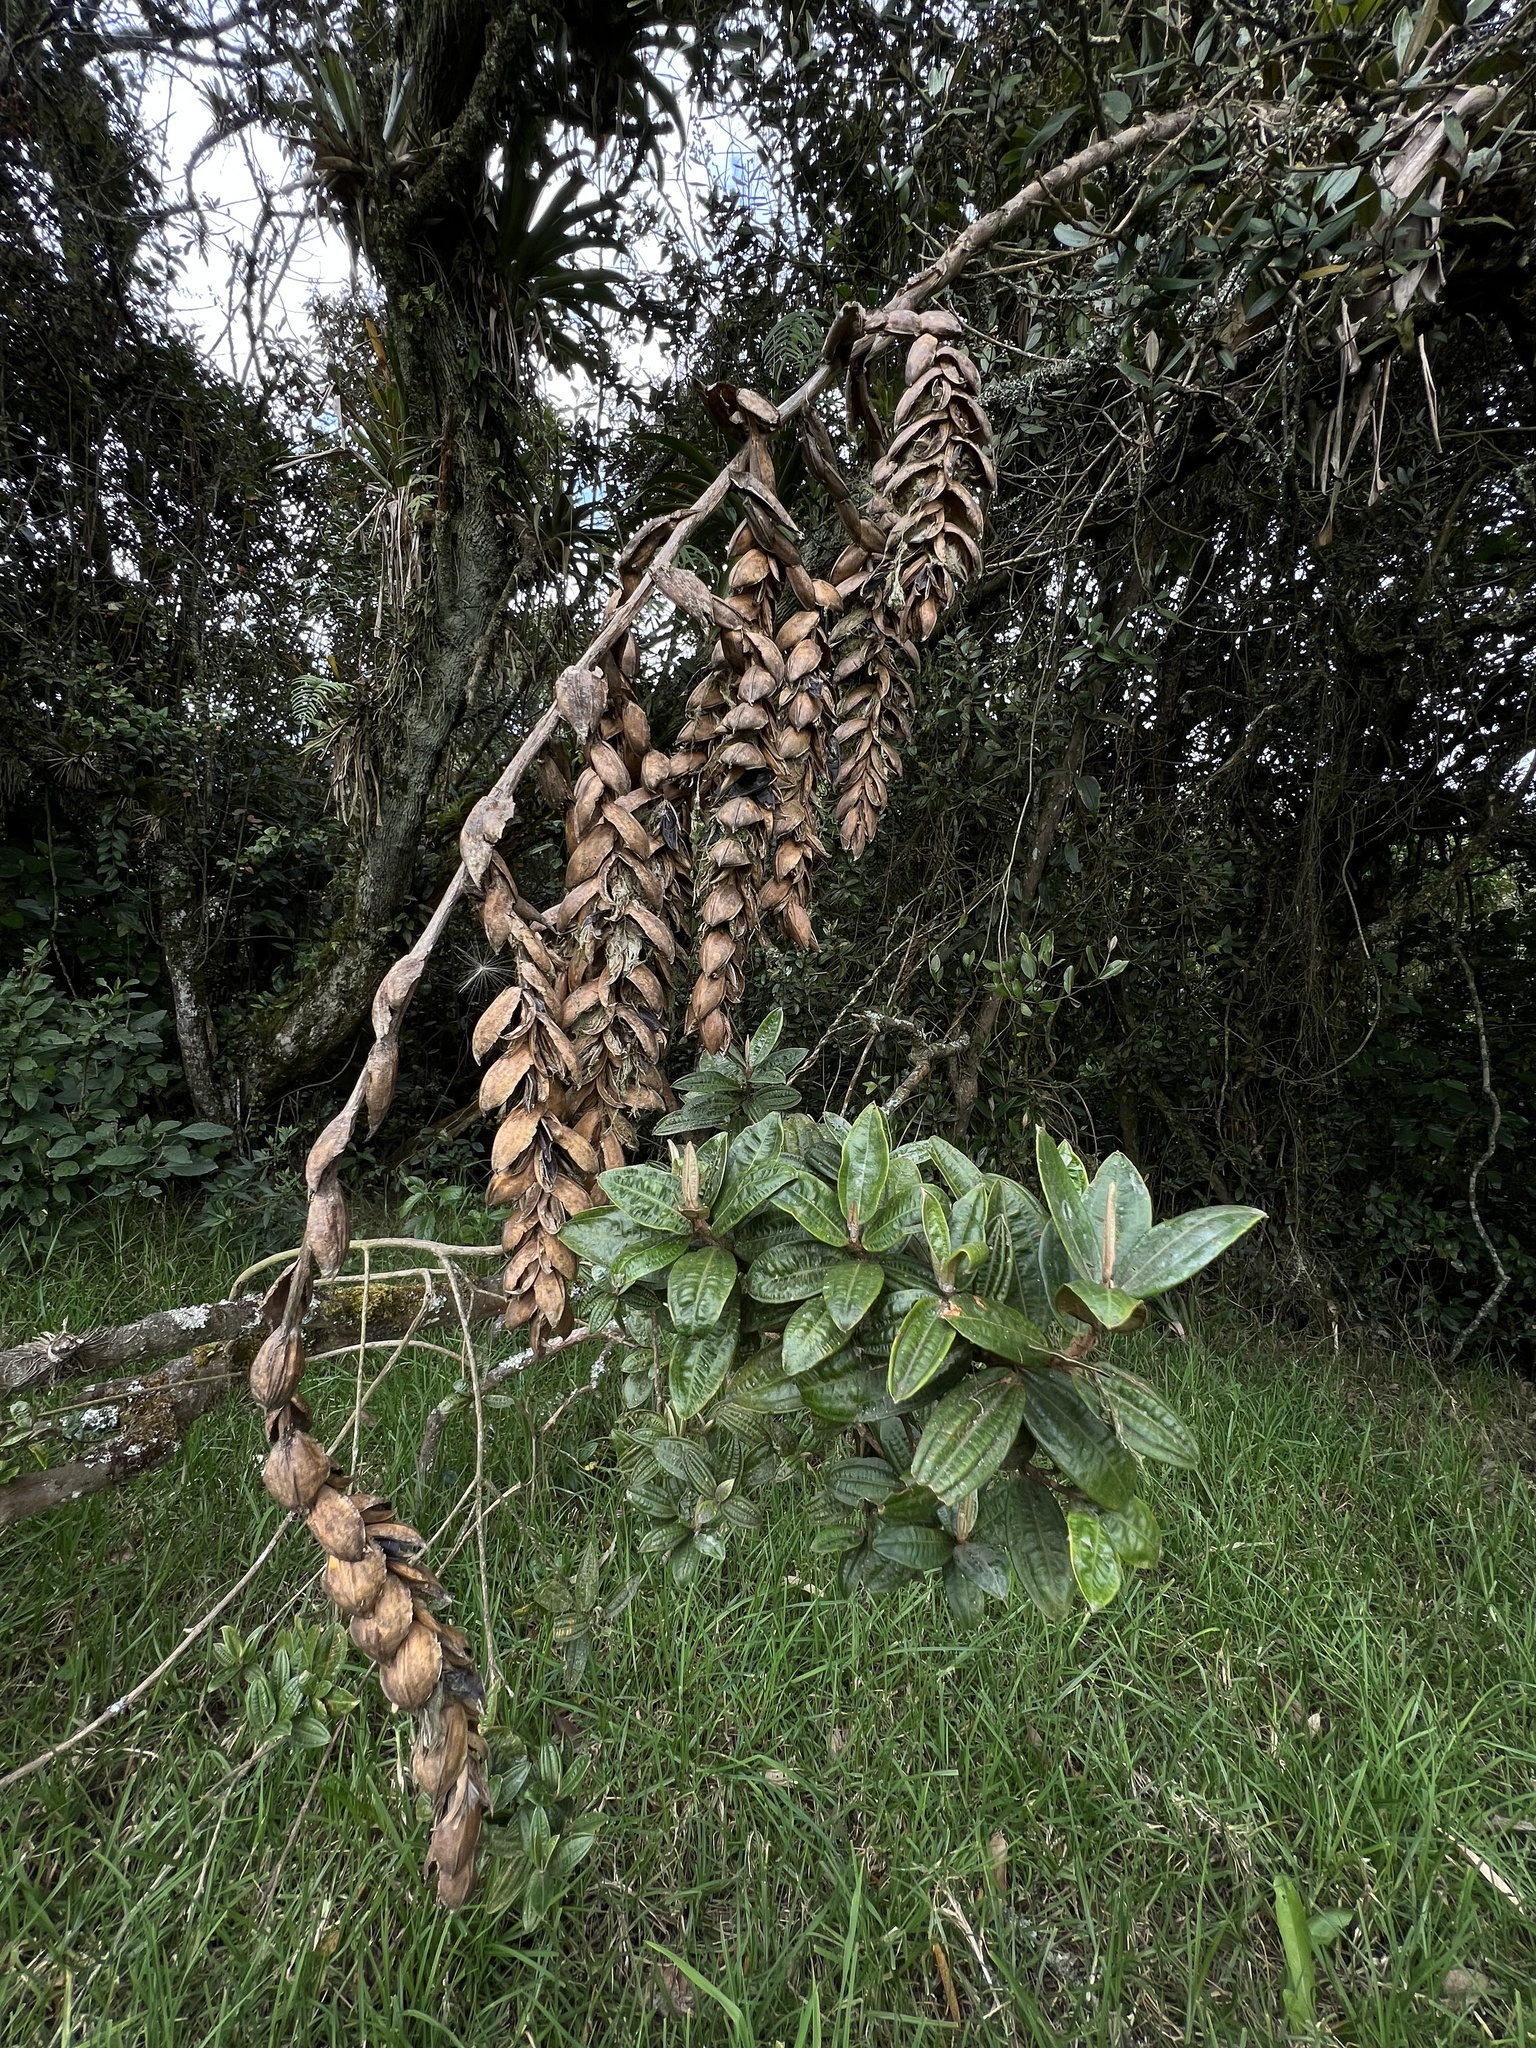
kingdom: Plantae
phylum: Tracheophyta
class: Liliopsida
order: Poales
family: Bromeliaceae
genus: Tillandsia
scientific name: Tillandsia clavigera
